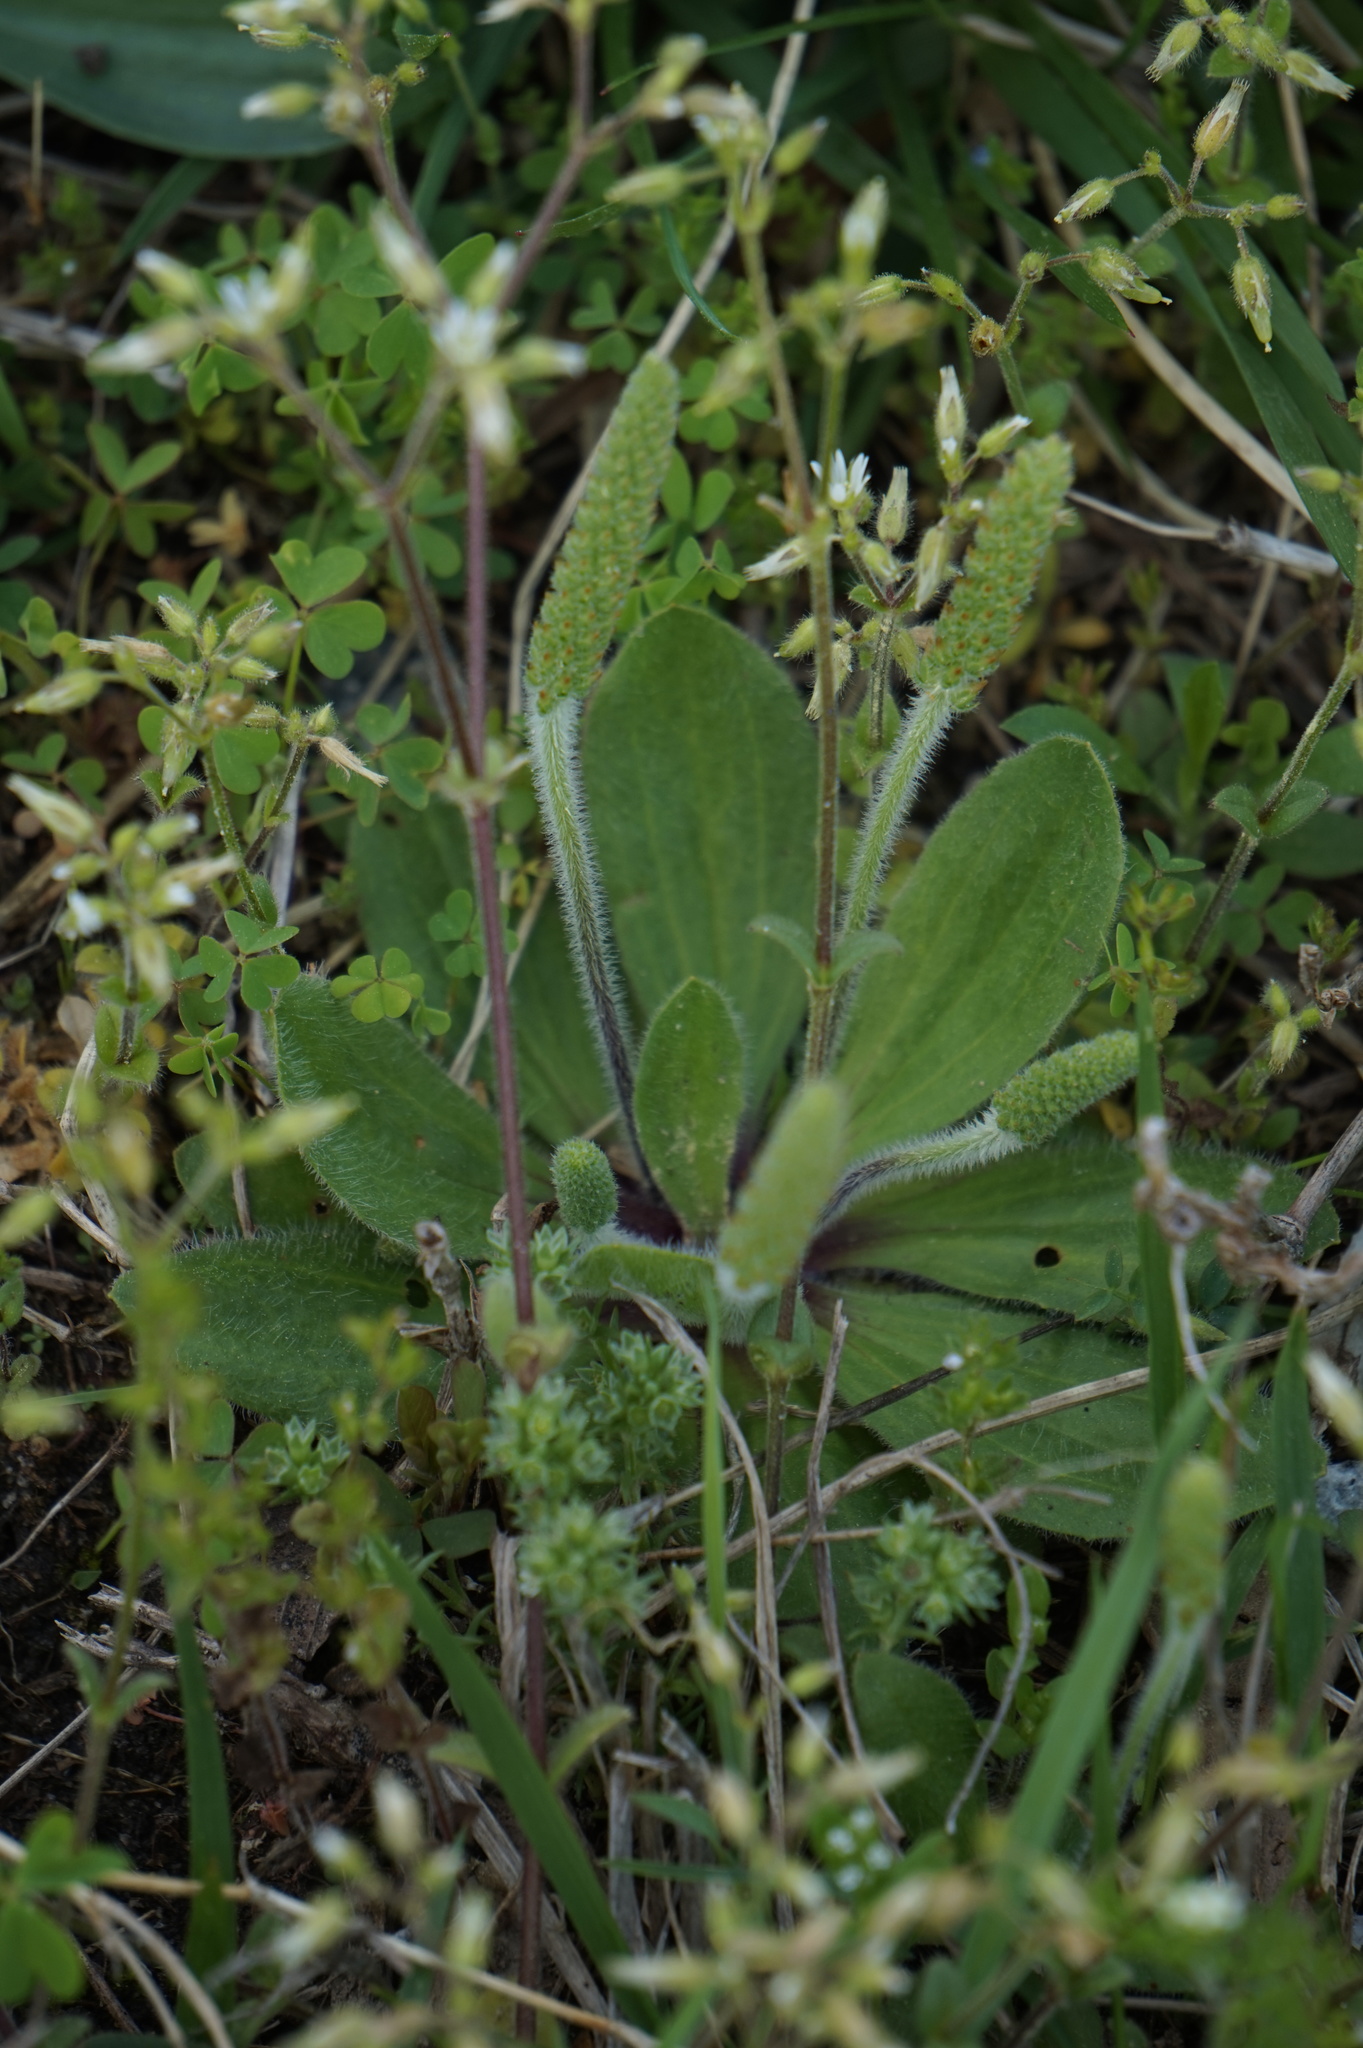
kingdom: Plantae
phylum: Tracheophyta
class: Magnoliopsida
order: Lamiales
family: Plantaginaceae
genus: Plantago
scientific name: Plantago virginica
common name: Hoary plantain
